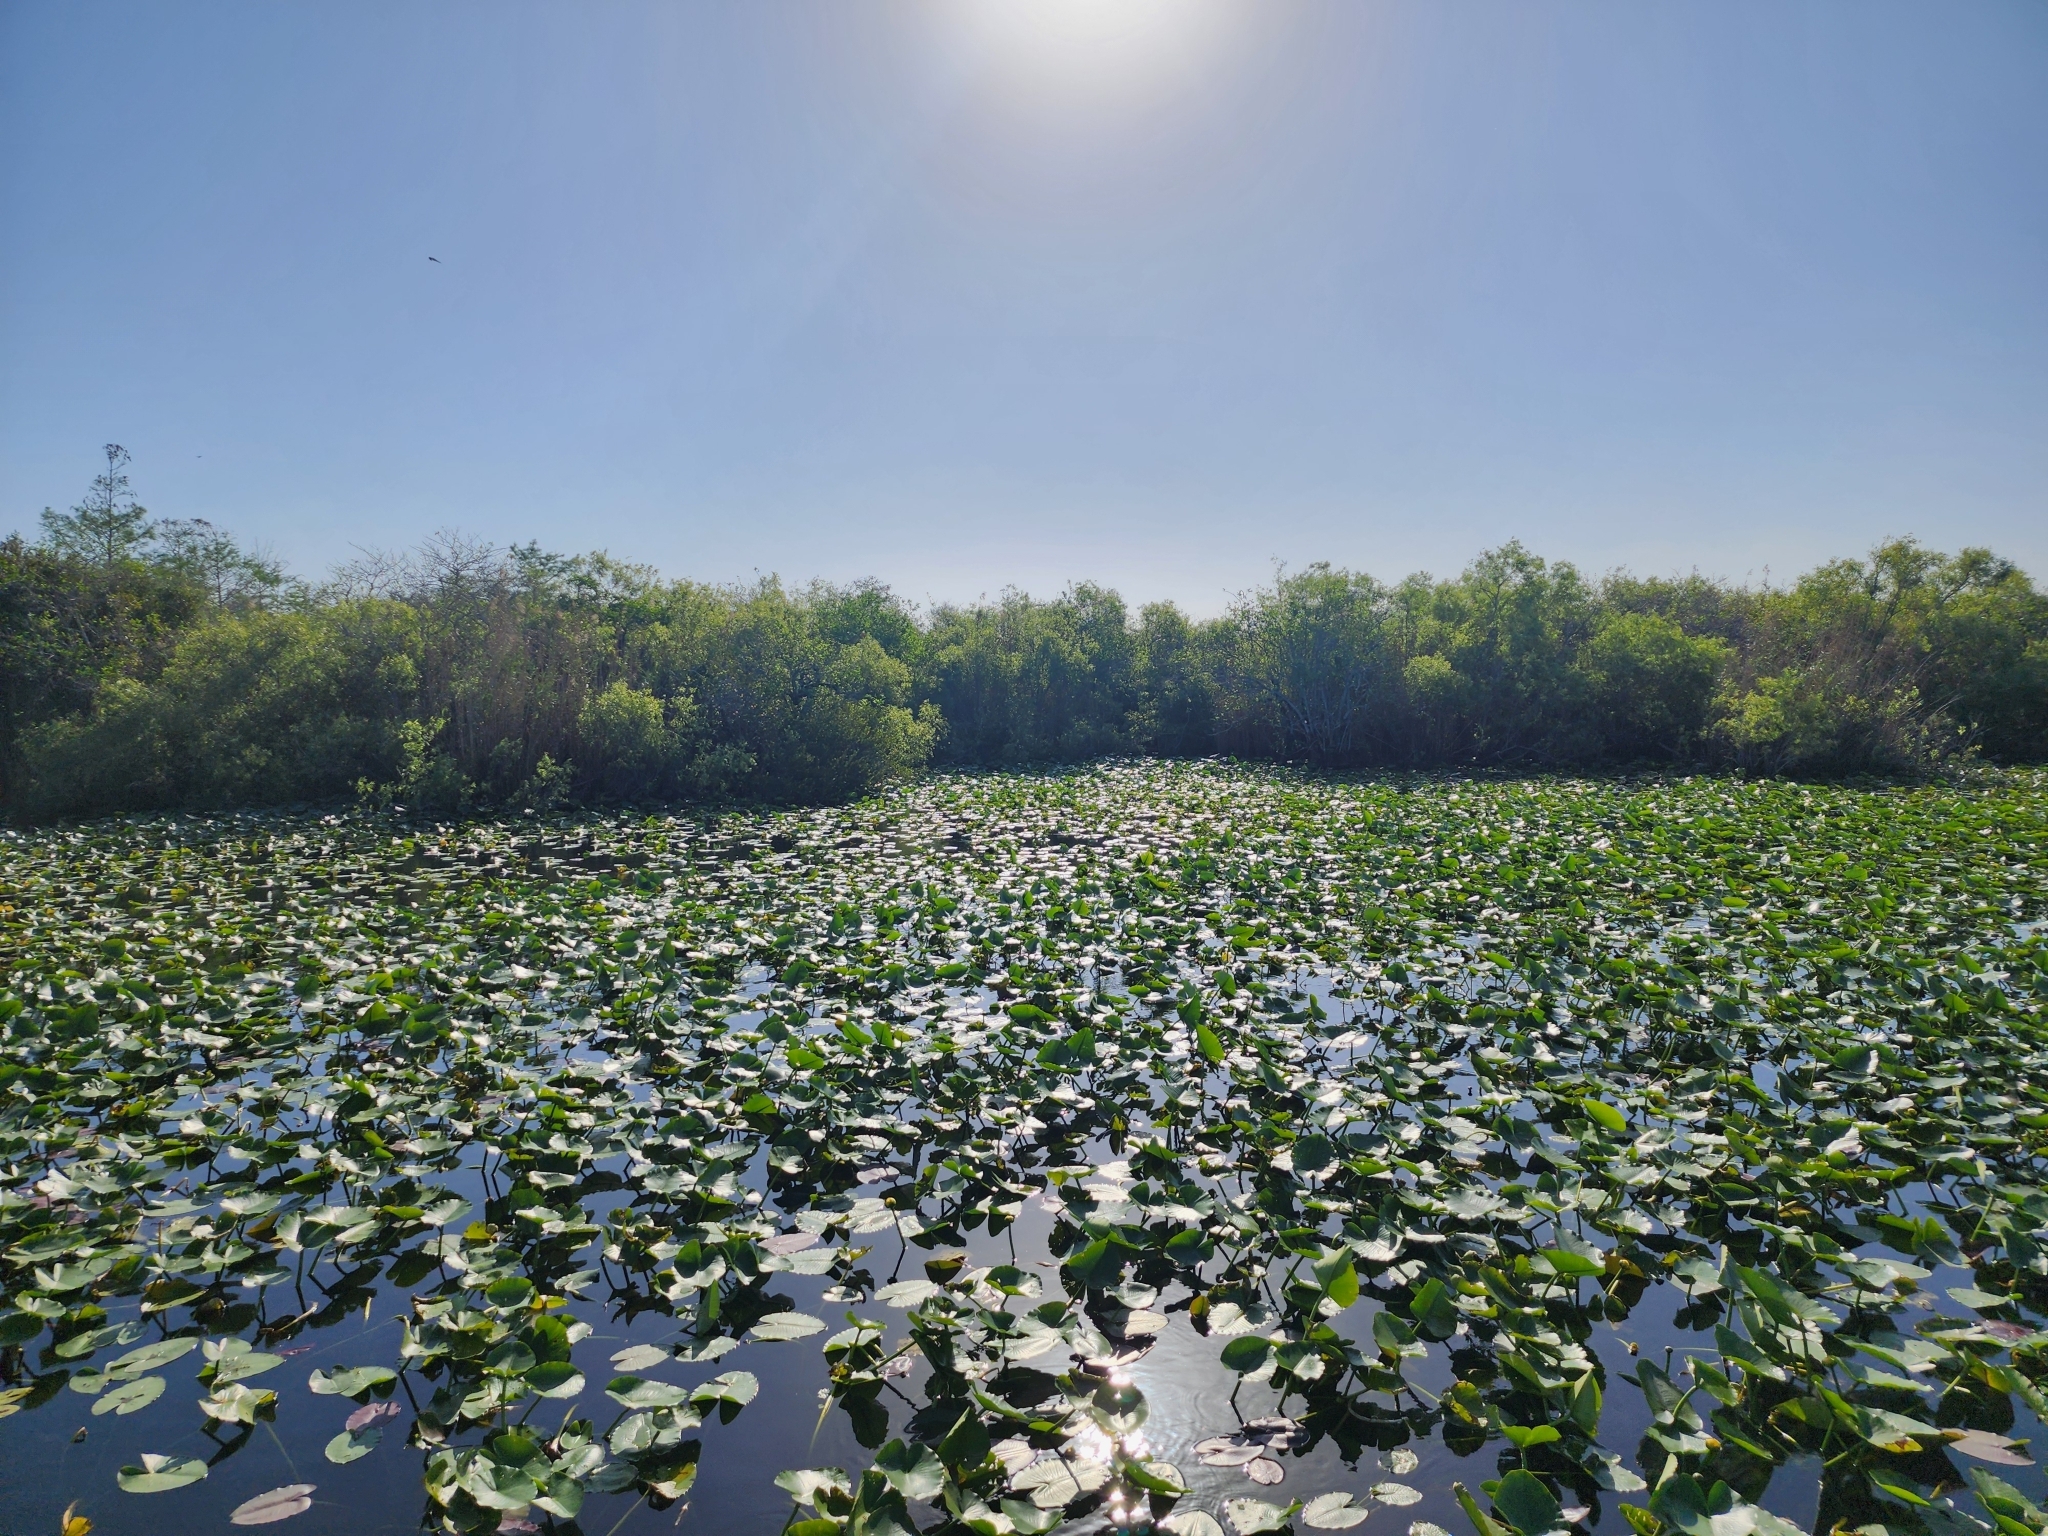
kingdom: Plantae
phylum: Tracheophyta
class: Magnoliopsida
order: Nymphaeales
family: Nymphaeaceae
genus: Nuphar
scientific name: Nuphar advena
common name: Spatter-dock
